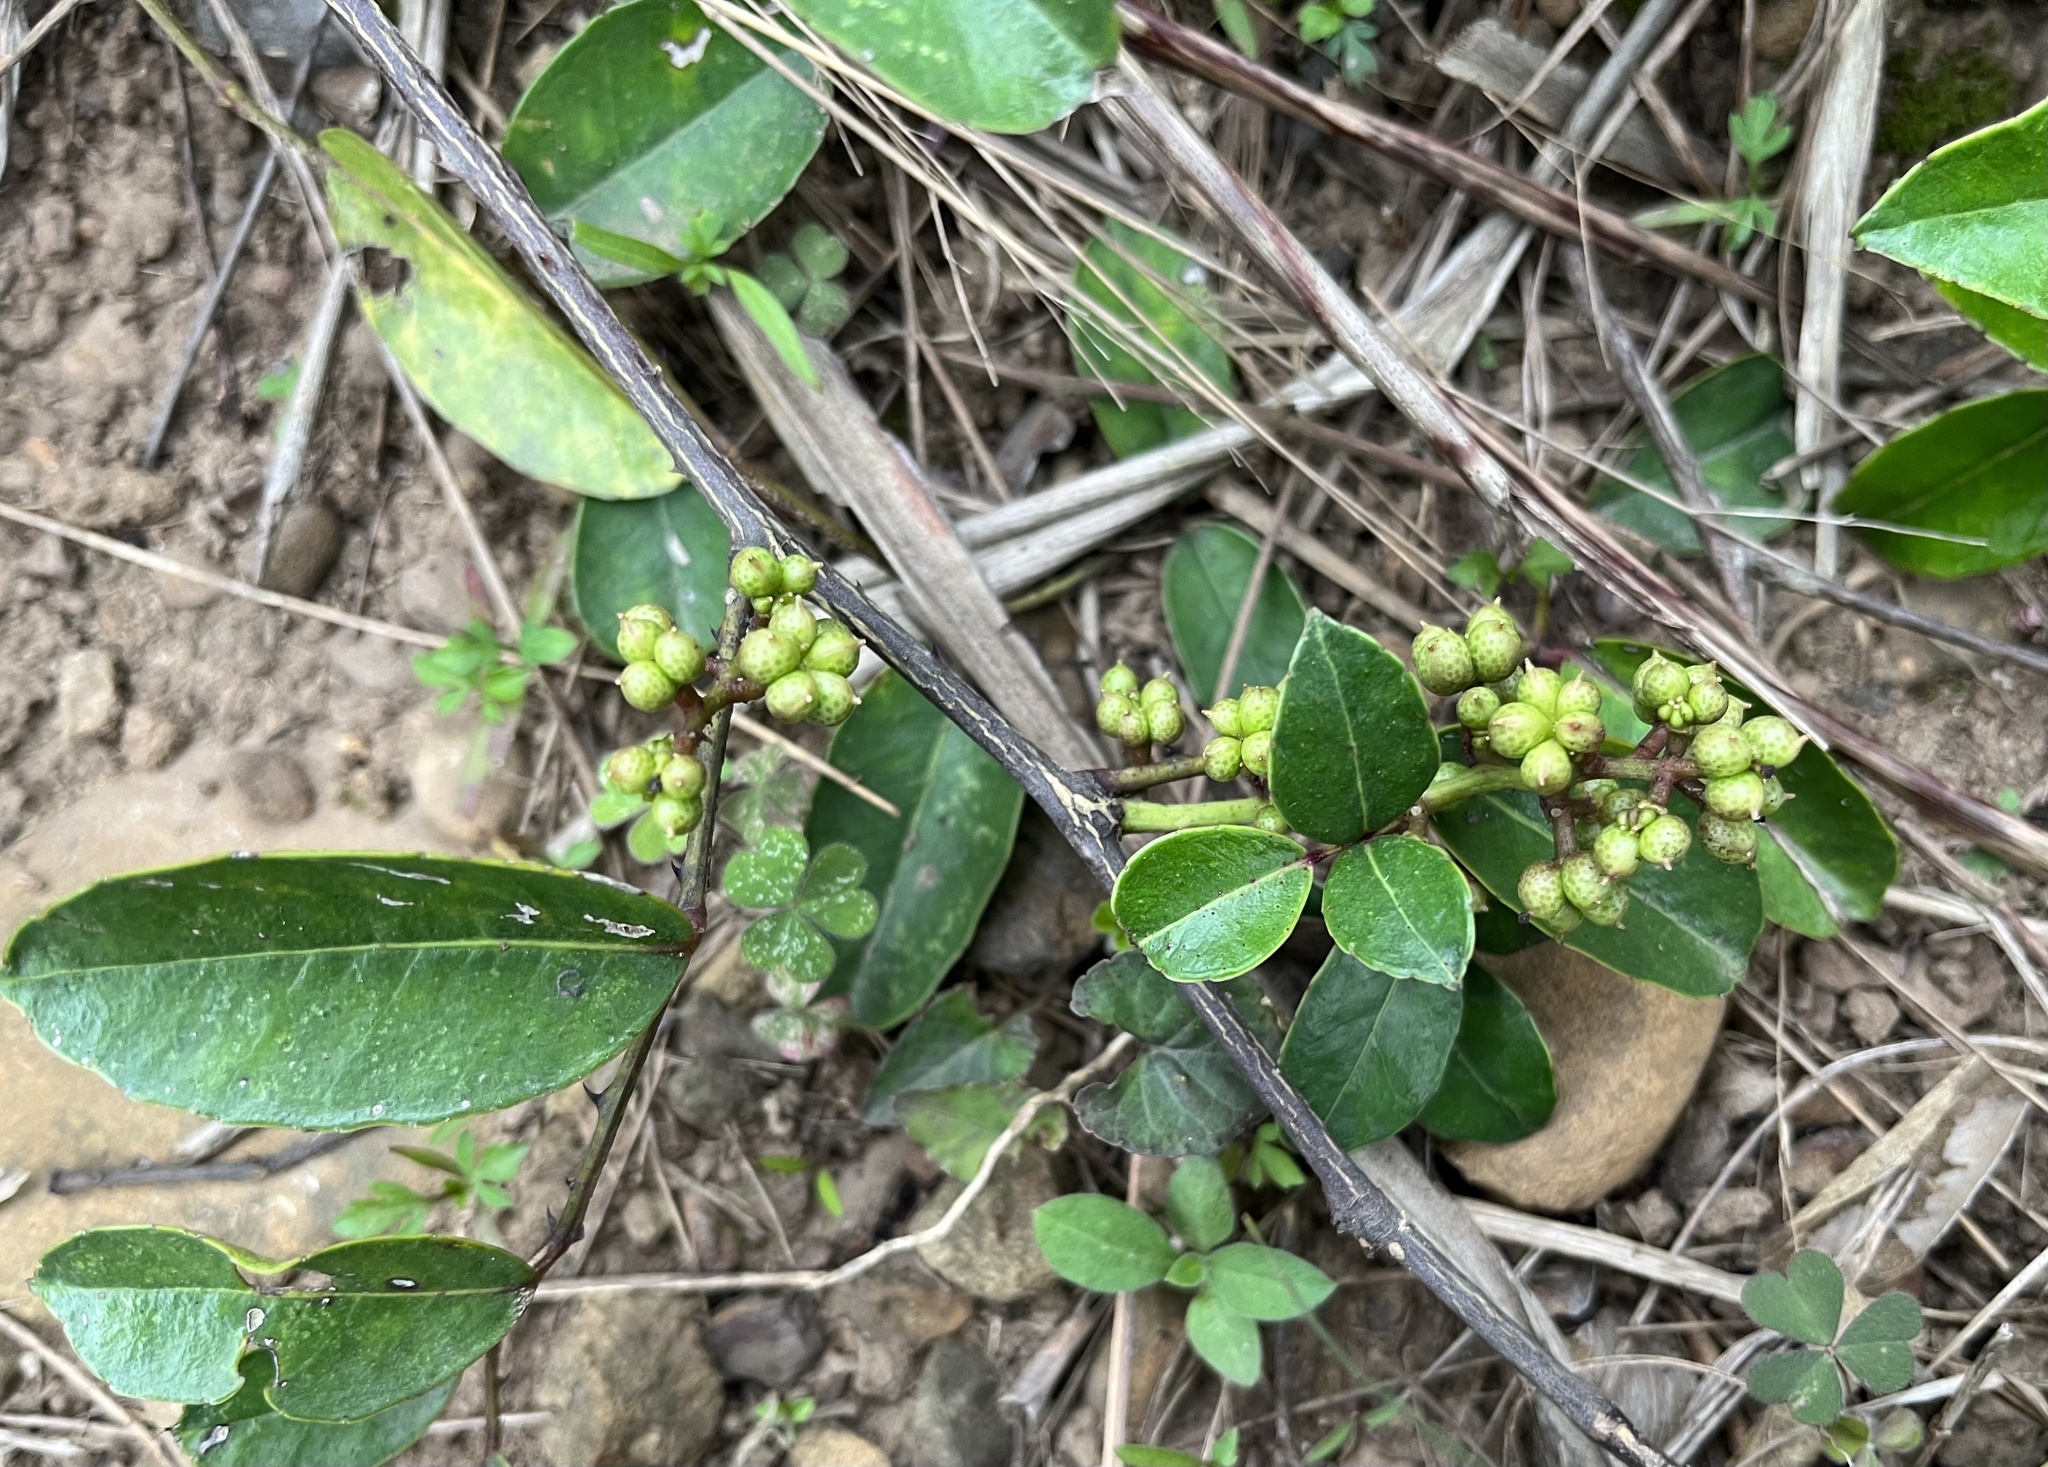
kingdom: Plantae
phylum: Tracheophyta
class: Magnoliopsida
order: Sapindales
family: Rutaceae
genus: Zanthoxylum
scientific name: Zanthoxylum nitidum
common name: Shiny-leaf prickly-ash
